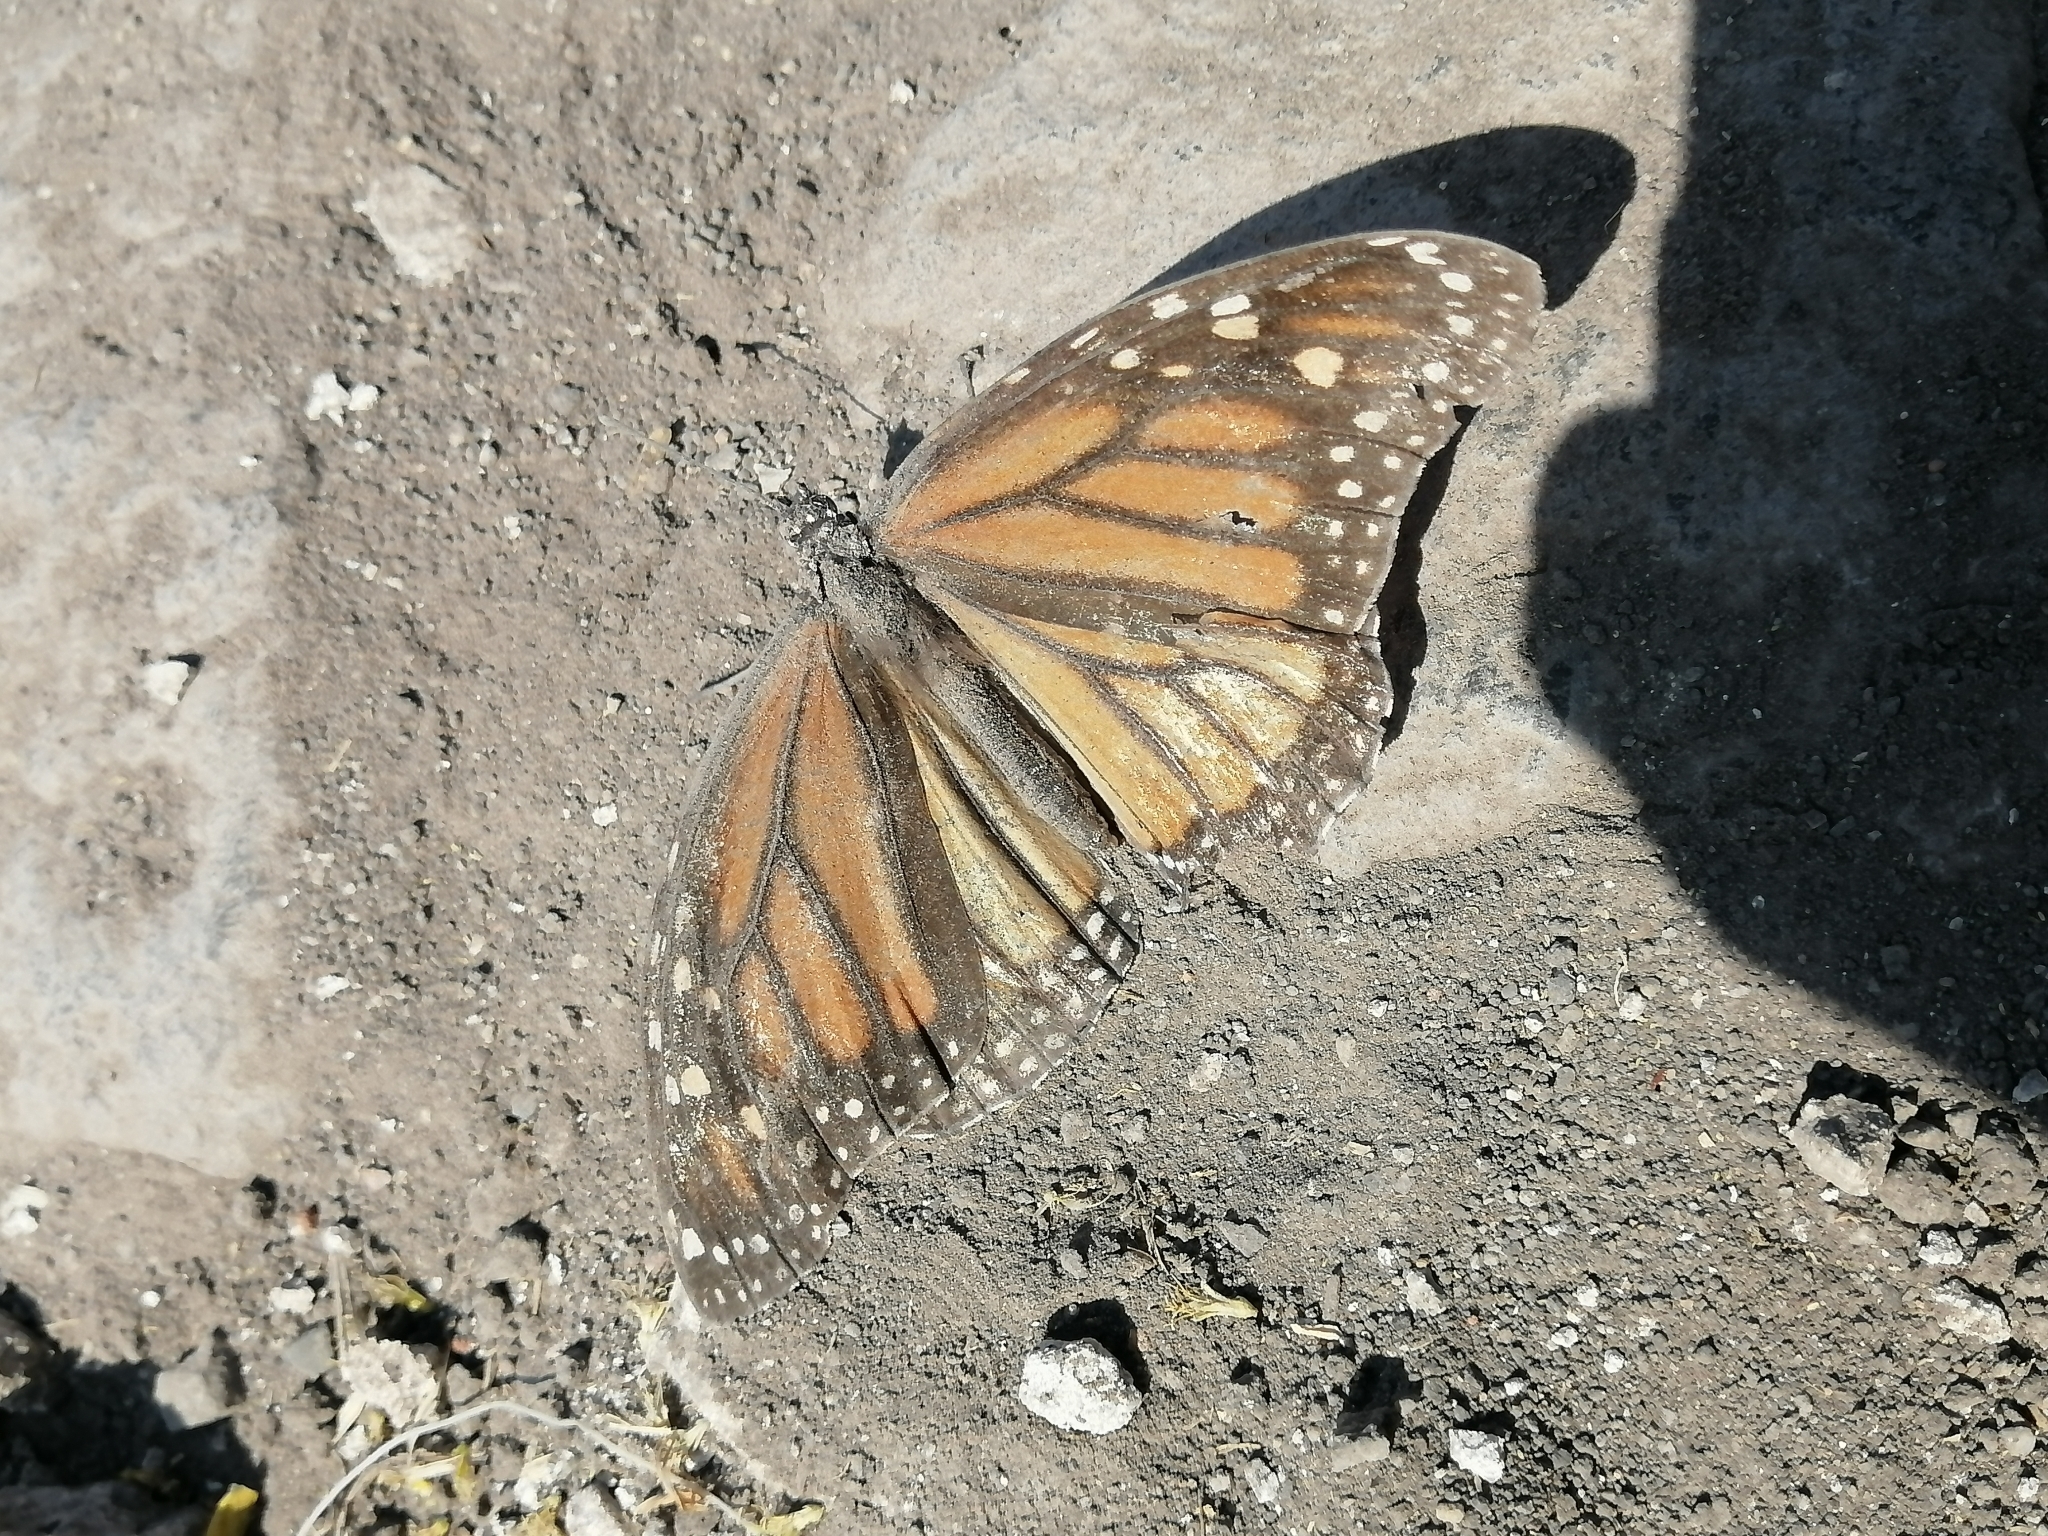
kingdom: Animalia
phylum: Arthropoda
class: Insecta
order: Lepidoptera
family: Nymphalidae
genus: Danaus
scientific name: Danaus plexippus
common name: Monarch
